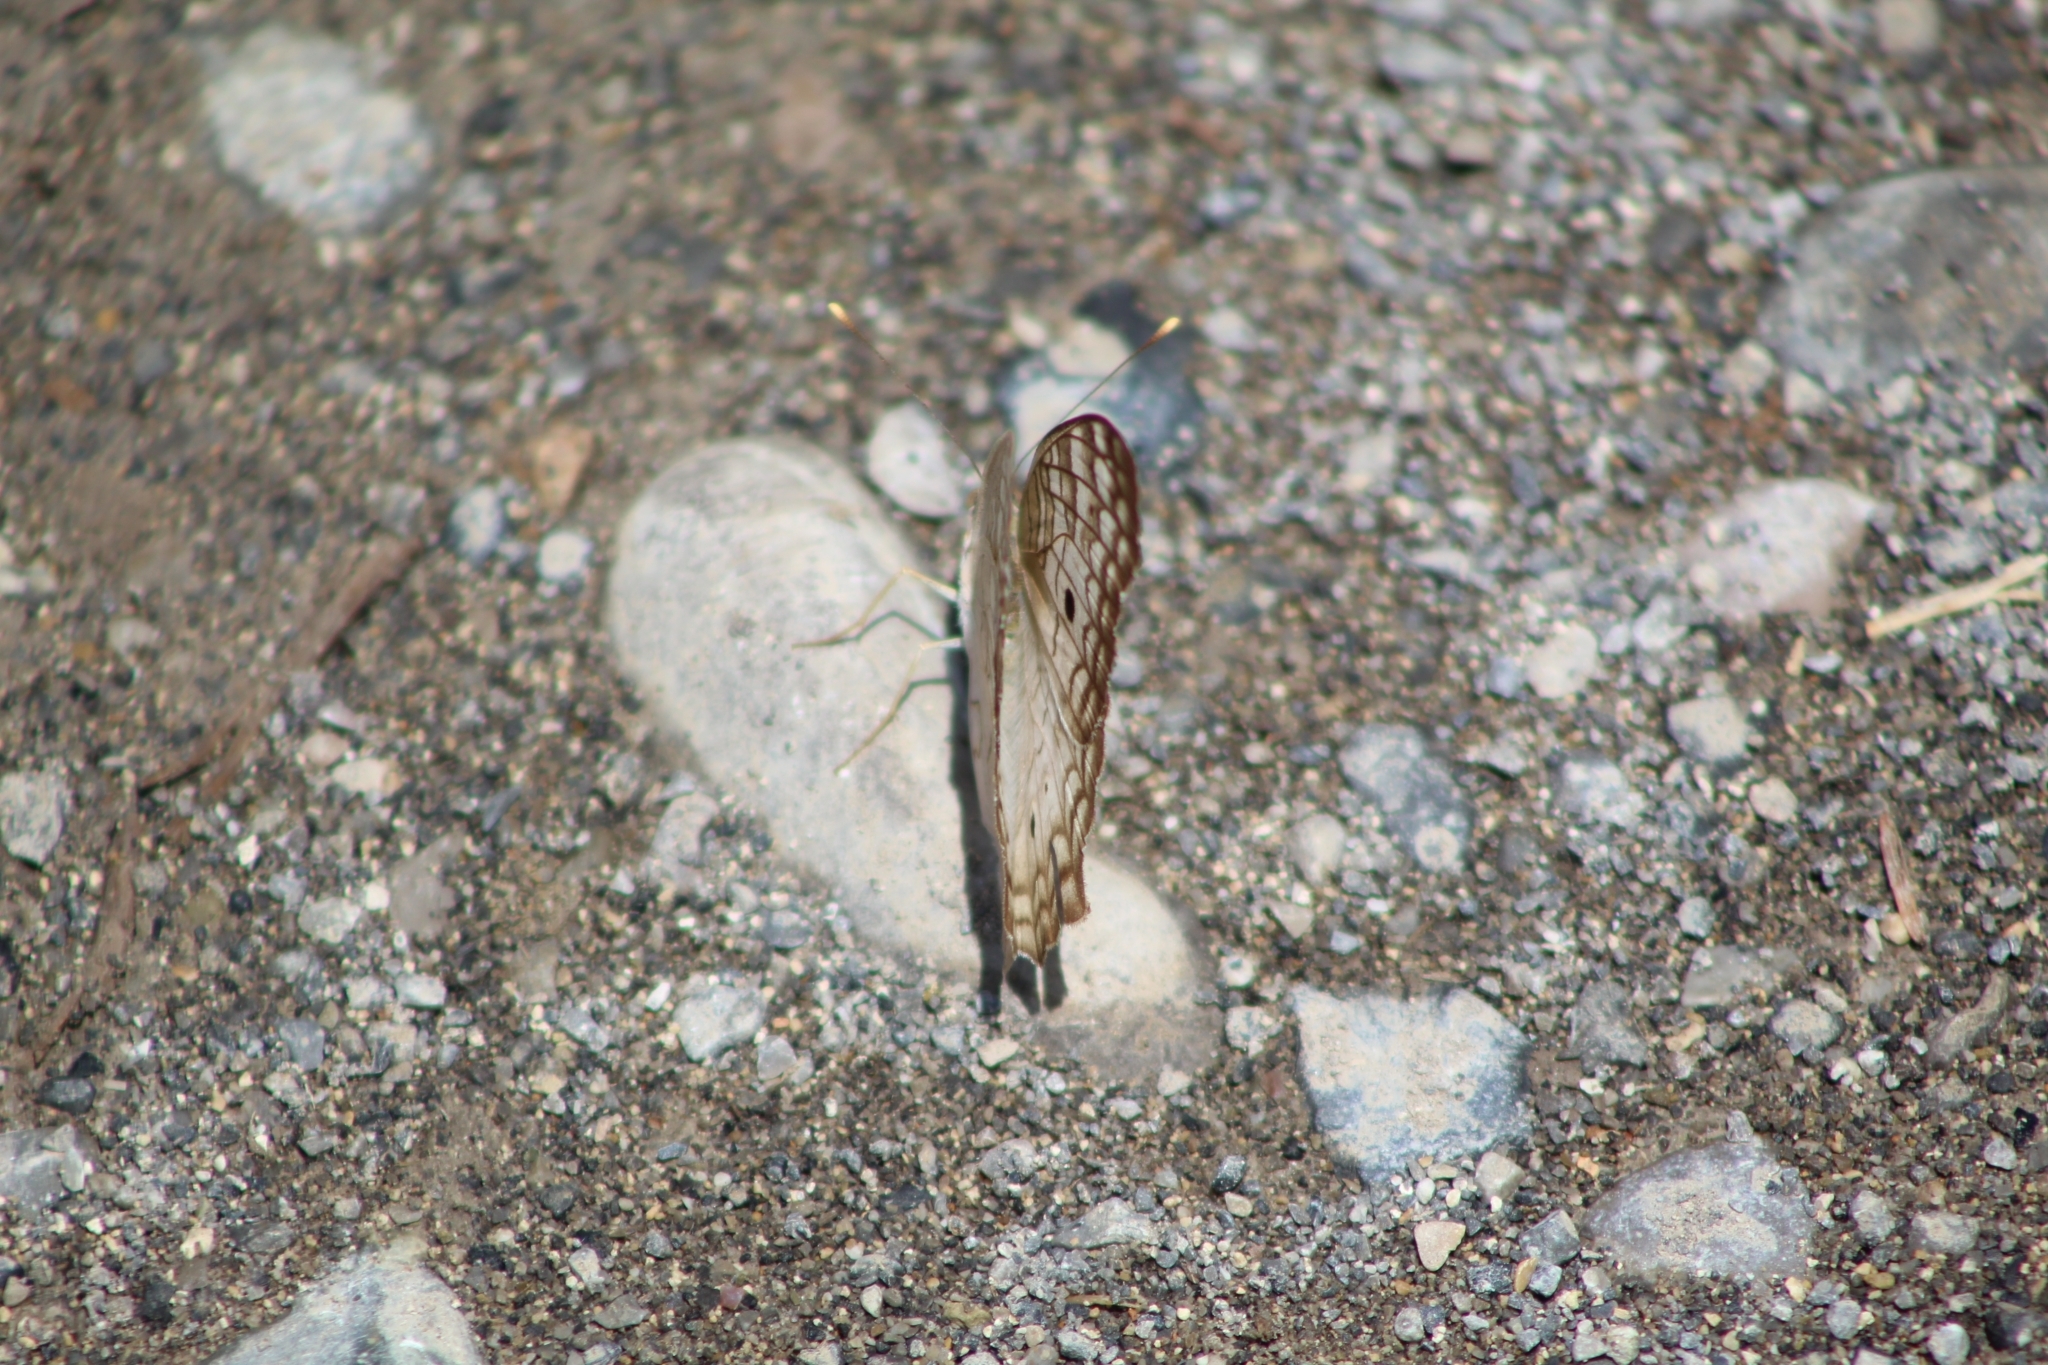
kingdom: Animalia
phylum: Arthropoda
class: Insecta
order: Lepidoptera
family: Nymphalidae
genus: Anartia
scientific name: Anartia jatrophae
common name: White peacock
